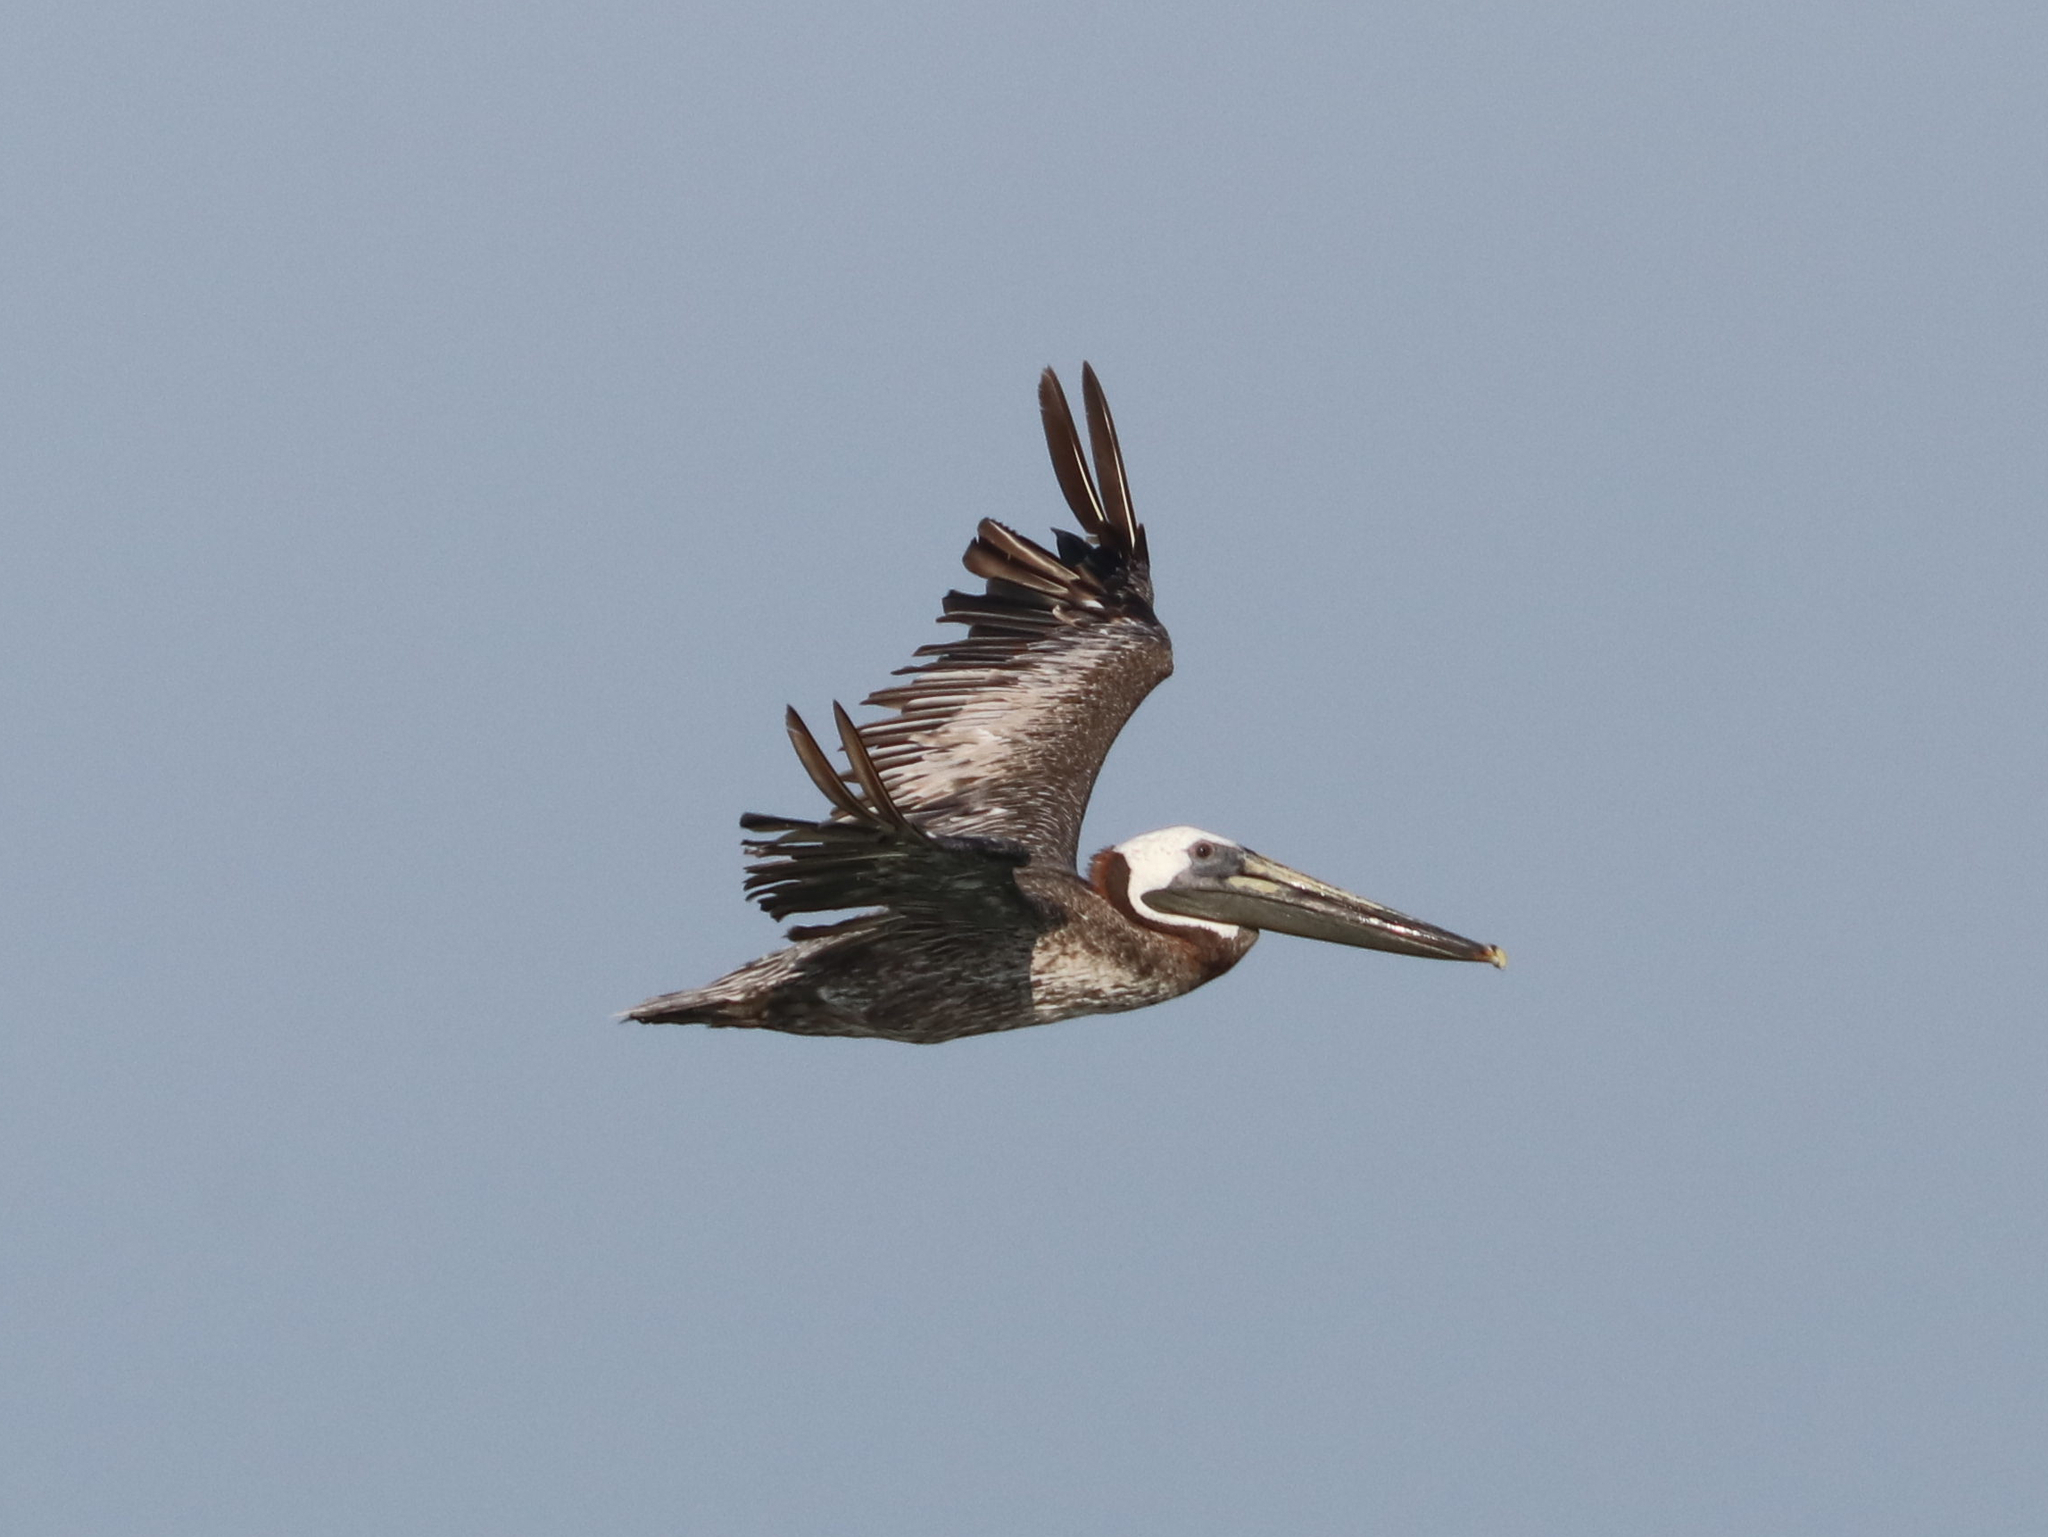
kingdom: Animalia
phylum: Chordata
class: Aves
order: Pelecaniformes
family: Pelecanidae
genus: Pelecanus
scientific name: Pelecanus occidentalis
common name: Brown pelican
